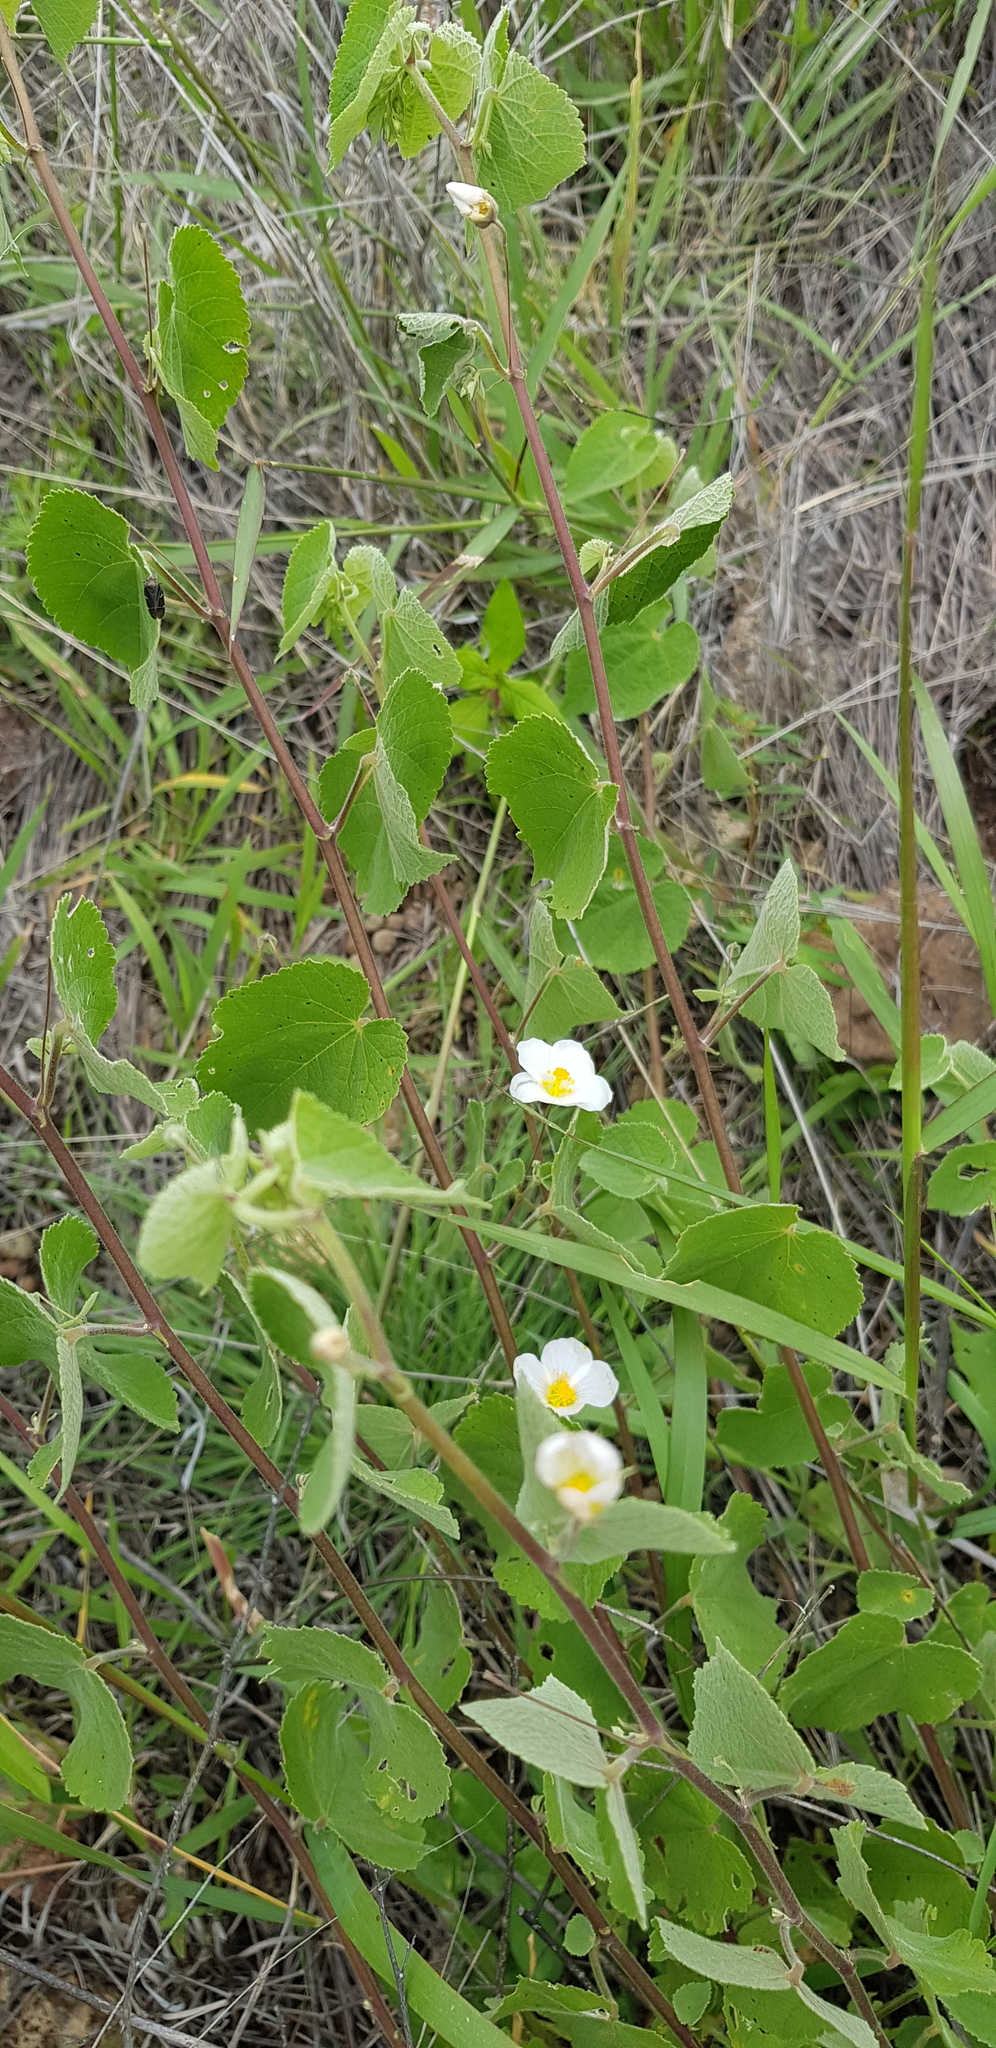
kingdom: Plantae
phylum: Tracheophyta
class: Magnoliopsida
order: Malvales
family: Malvaceae
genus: Herissantia
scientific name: Herissantia crispa
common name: Bladdermallow
